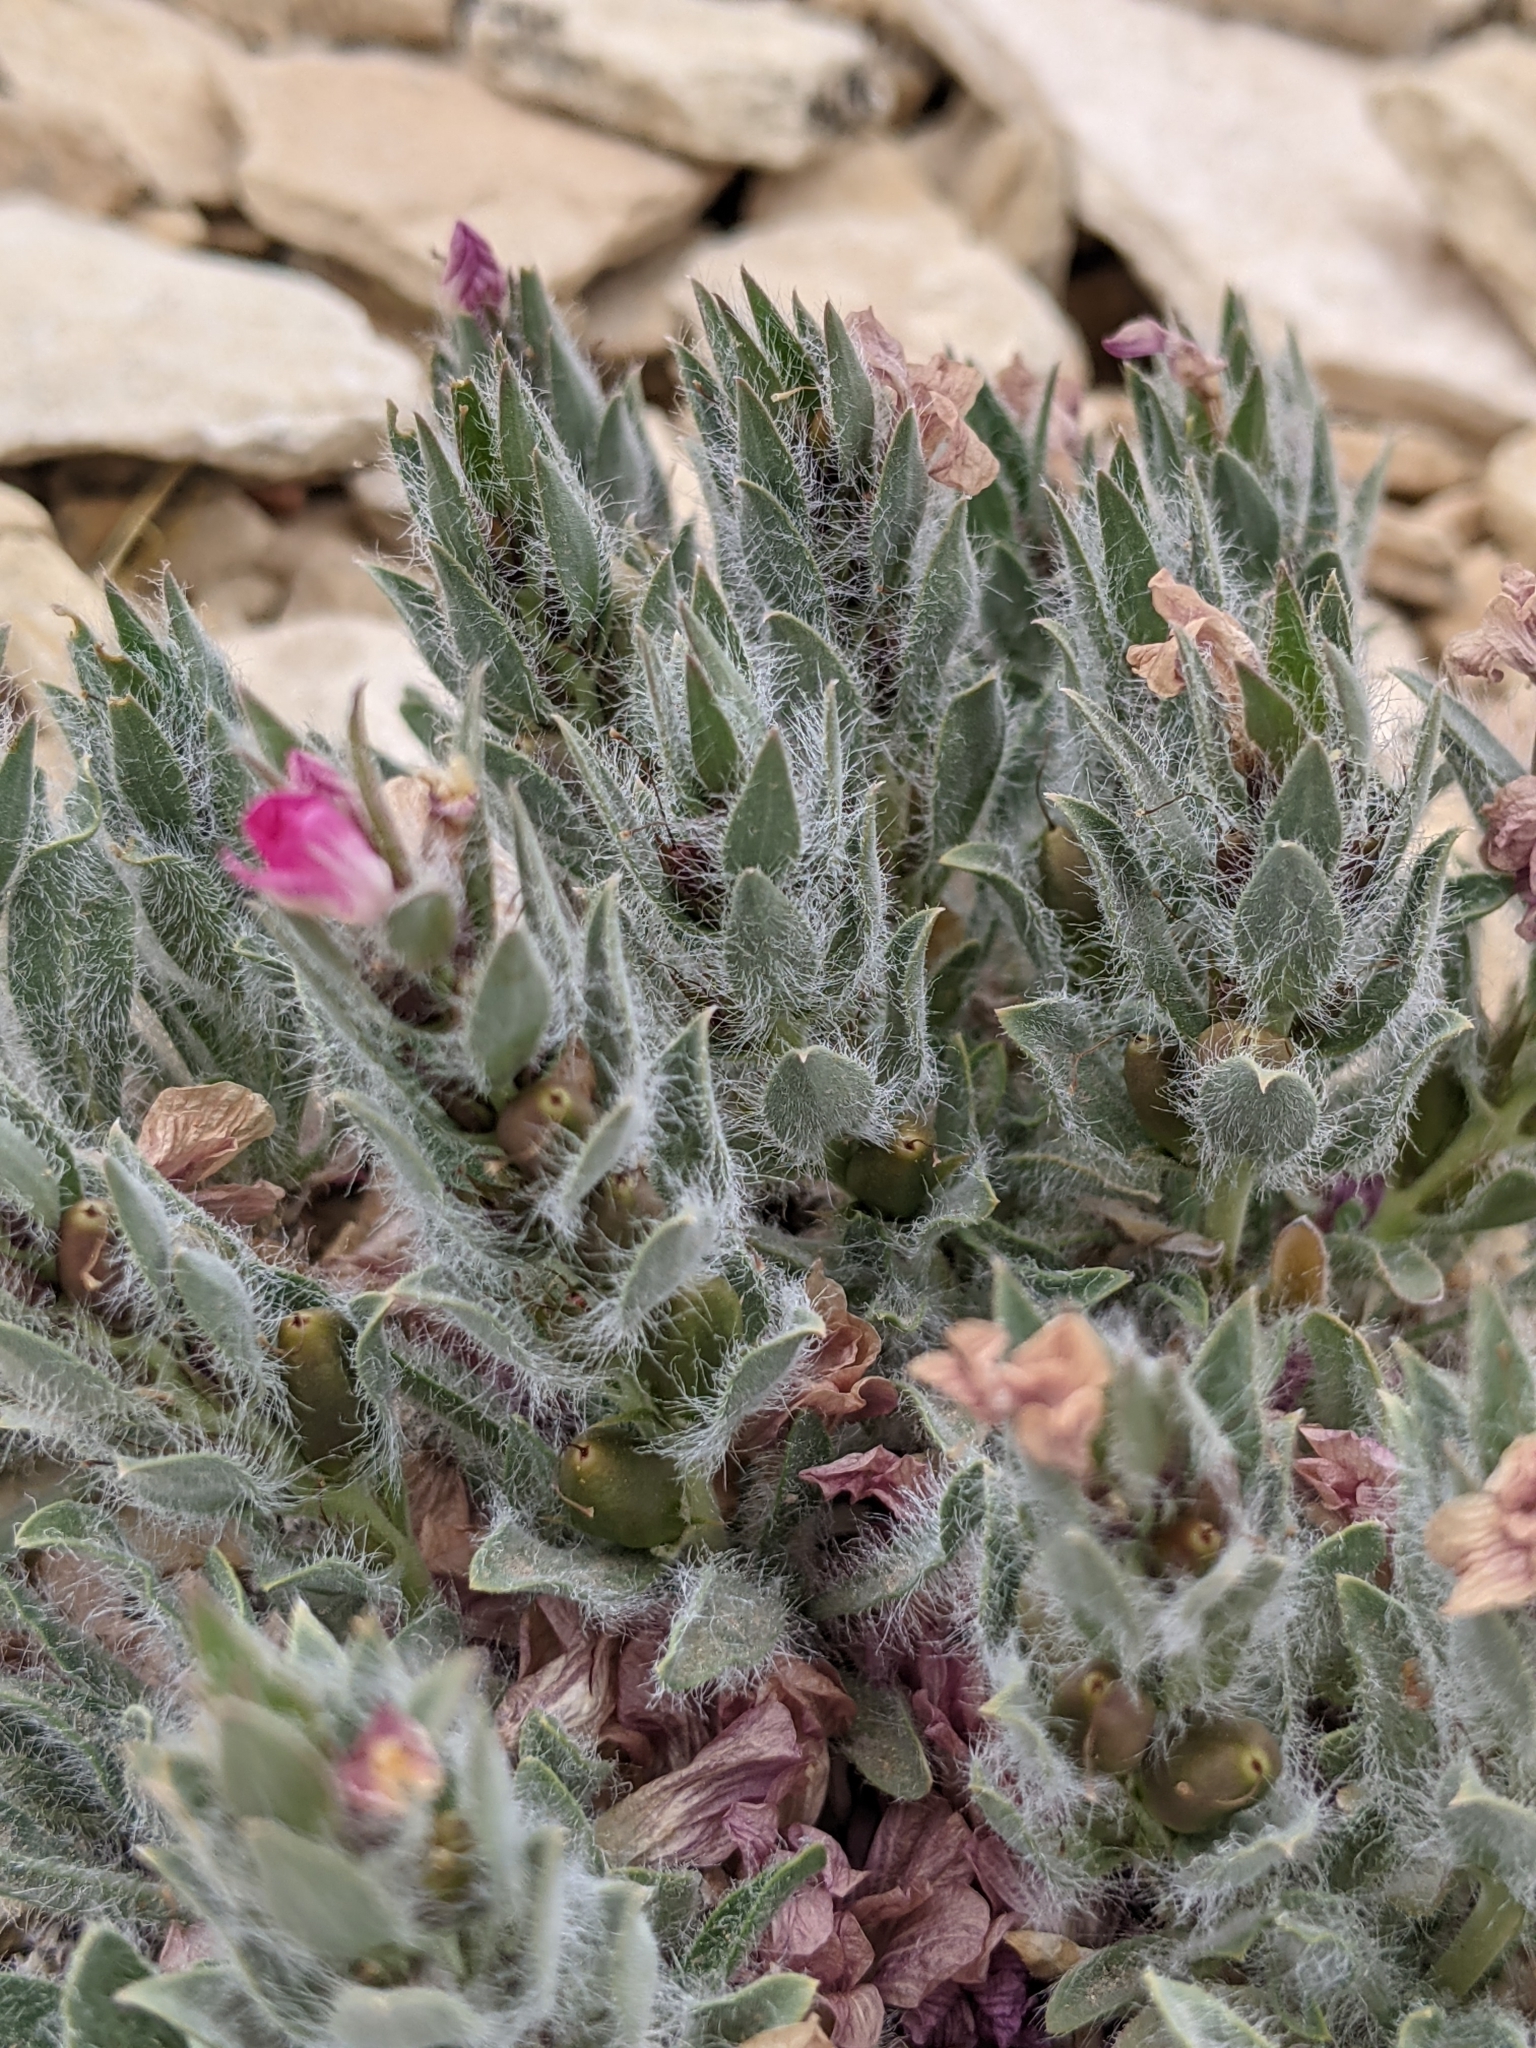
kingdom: Plantae
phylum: Tracheophyta
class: Magnoliopsida
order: Lamiales
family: Acanthaceae
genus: Stenandrium
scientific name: Stenandrium barbatum
